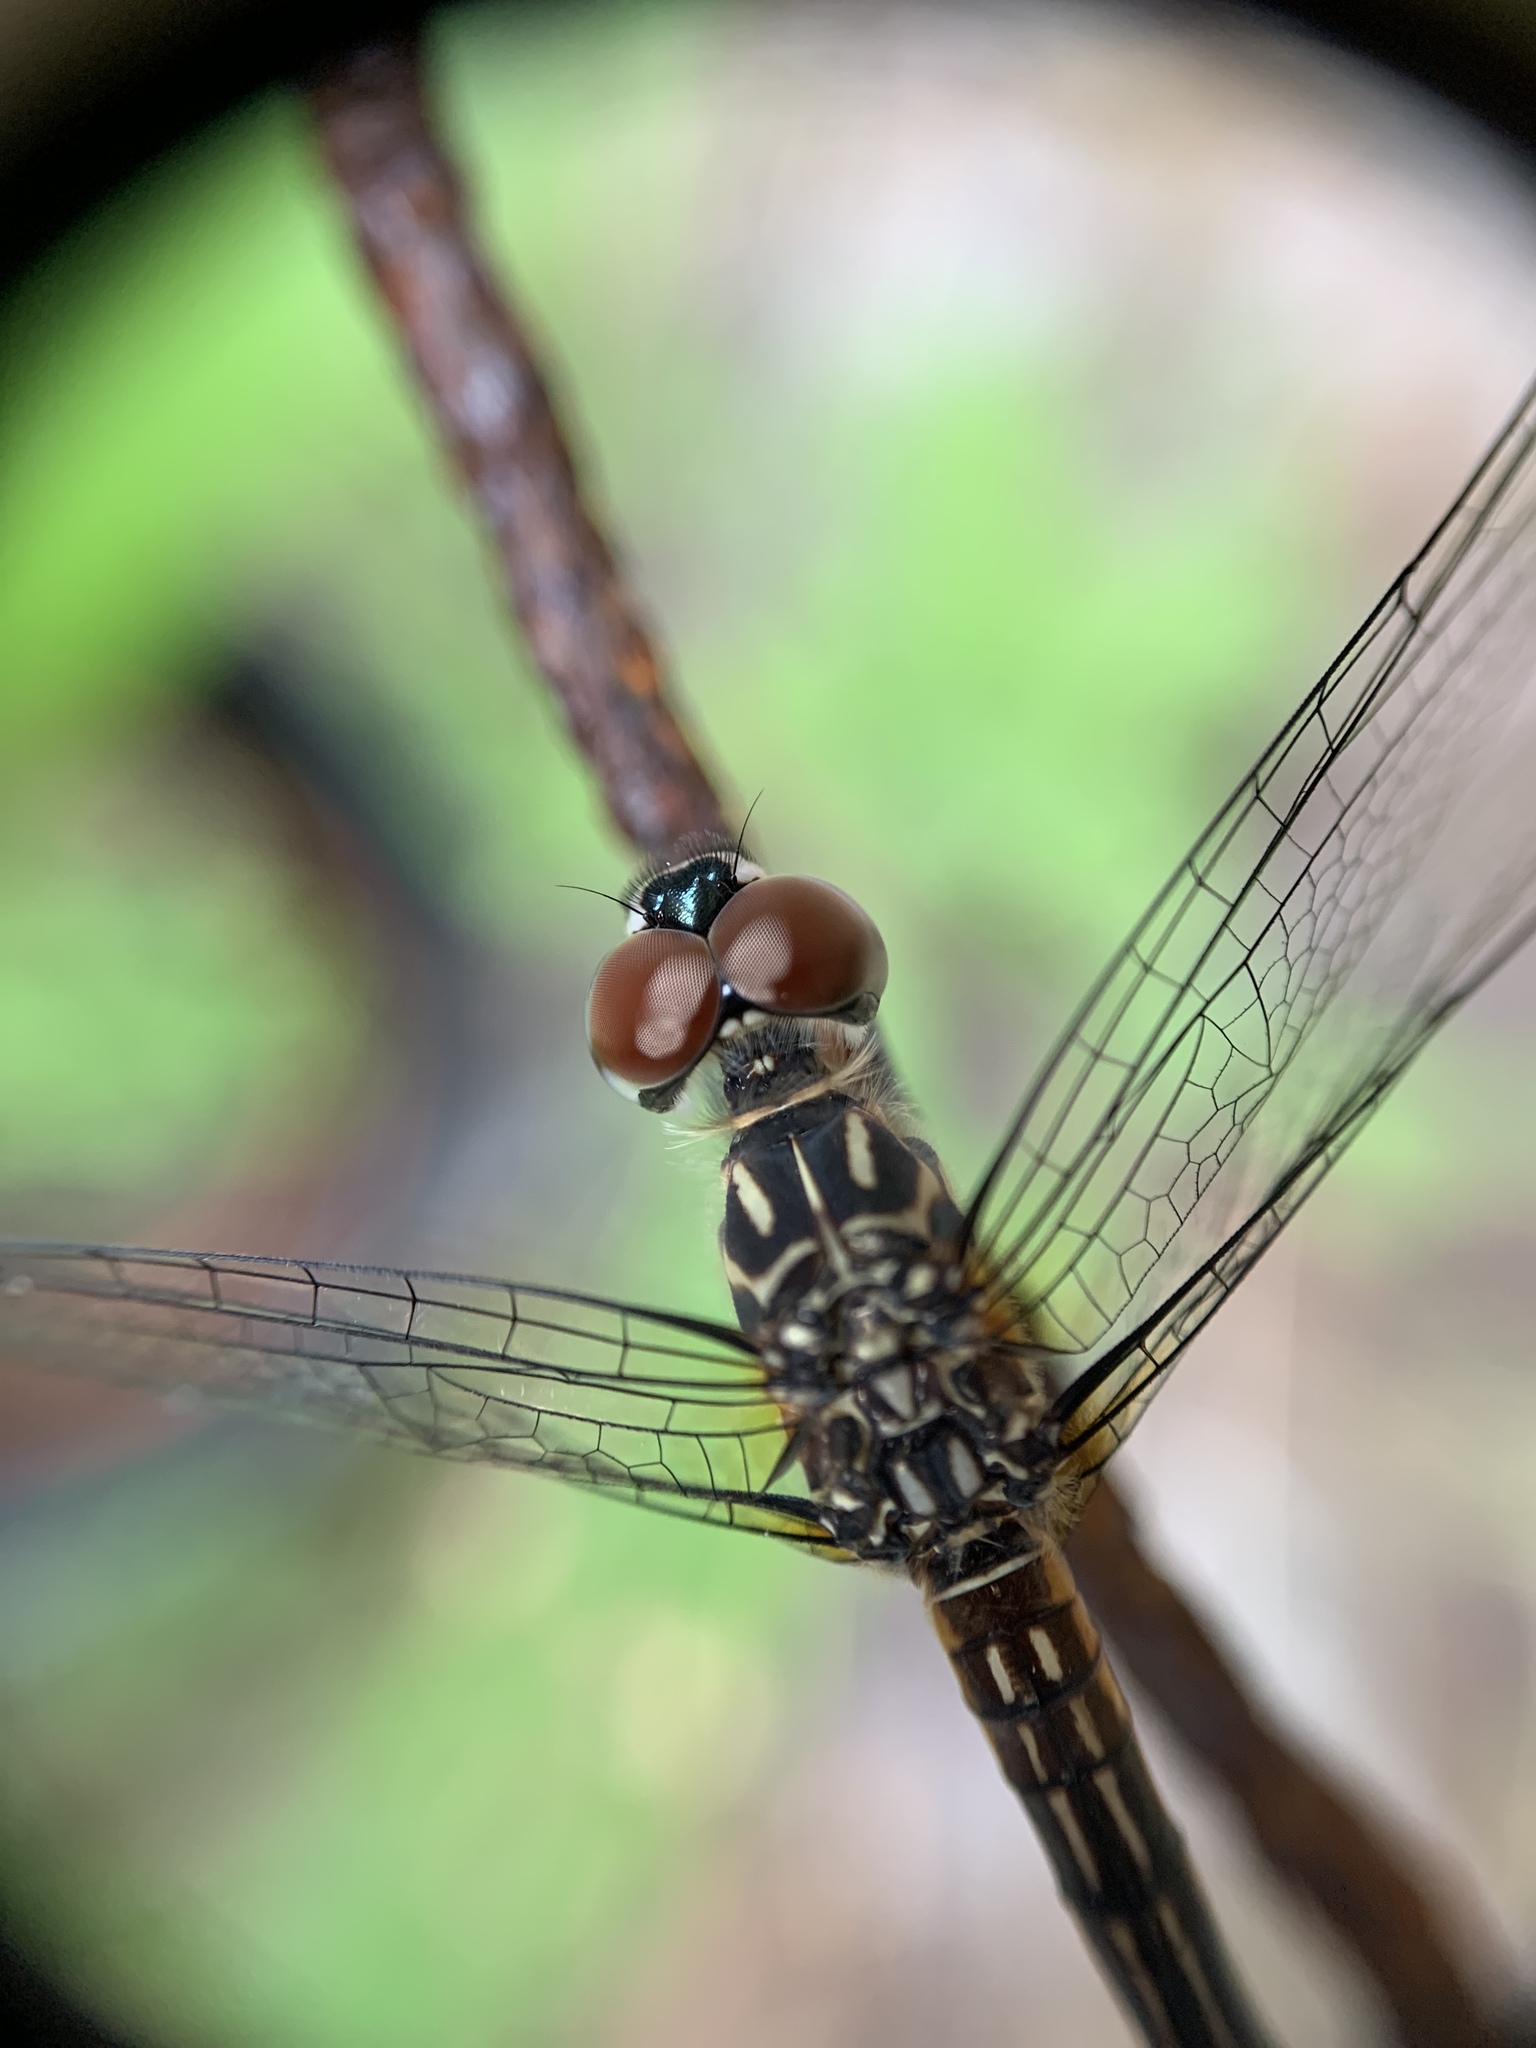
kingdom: Animalia
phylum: Arthropoda
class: Insecta
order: Odonata
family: Libellulidae
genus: Pachydiplax
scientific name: Pachydiplax longipennis
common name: Blue dasher
